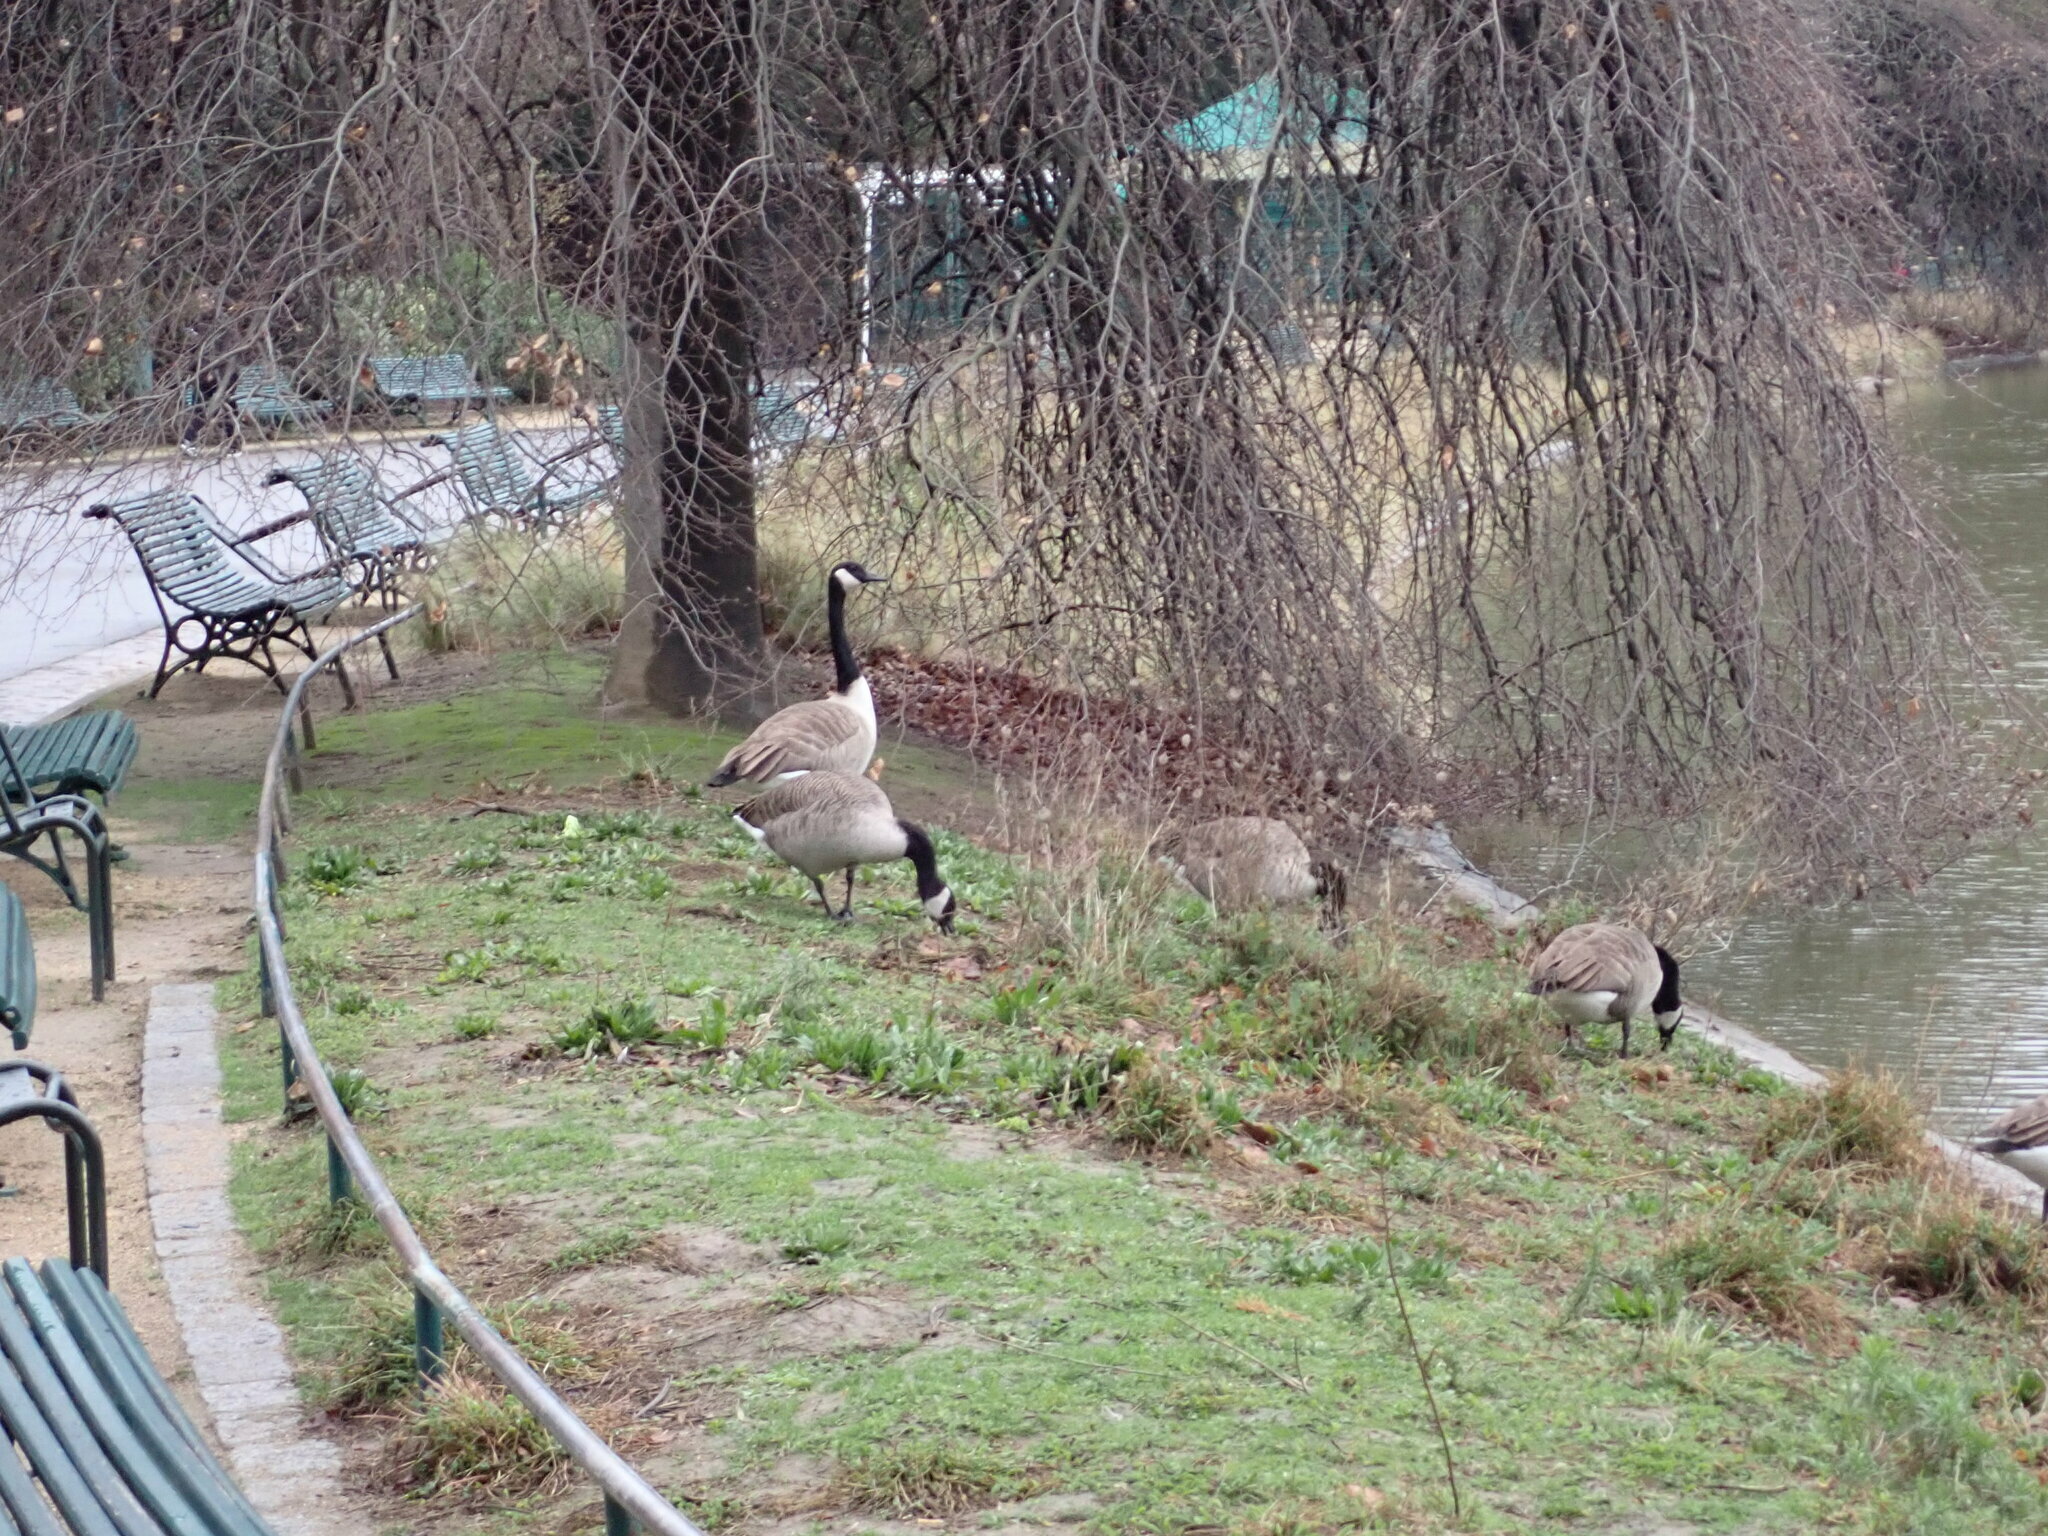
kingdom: Animalia
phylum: Chordata
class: Aves
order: Anseriformes
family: Anatidae
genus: Branta
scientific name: Branta canadensis
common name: Canada goose
